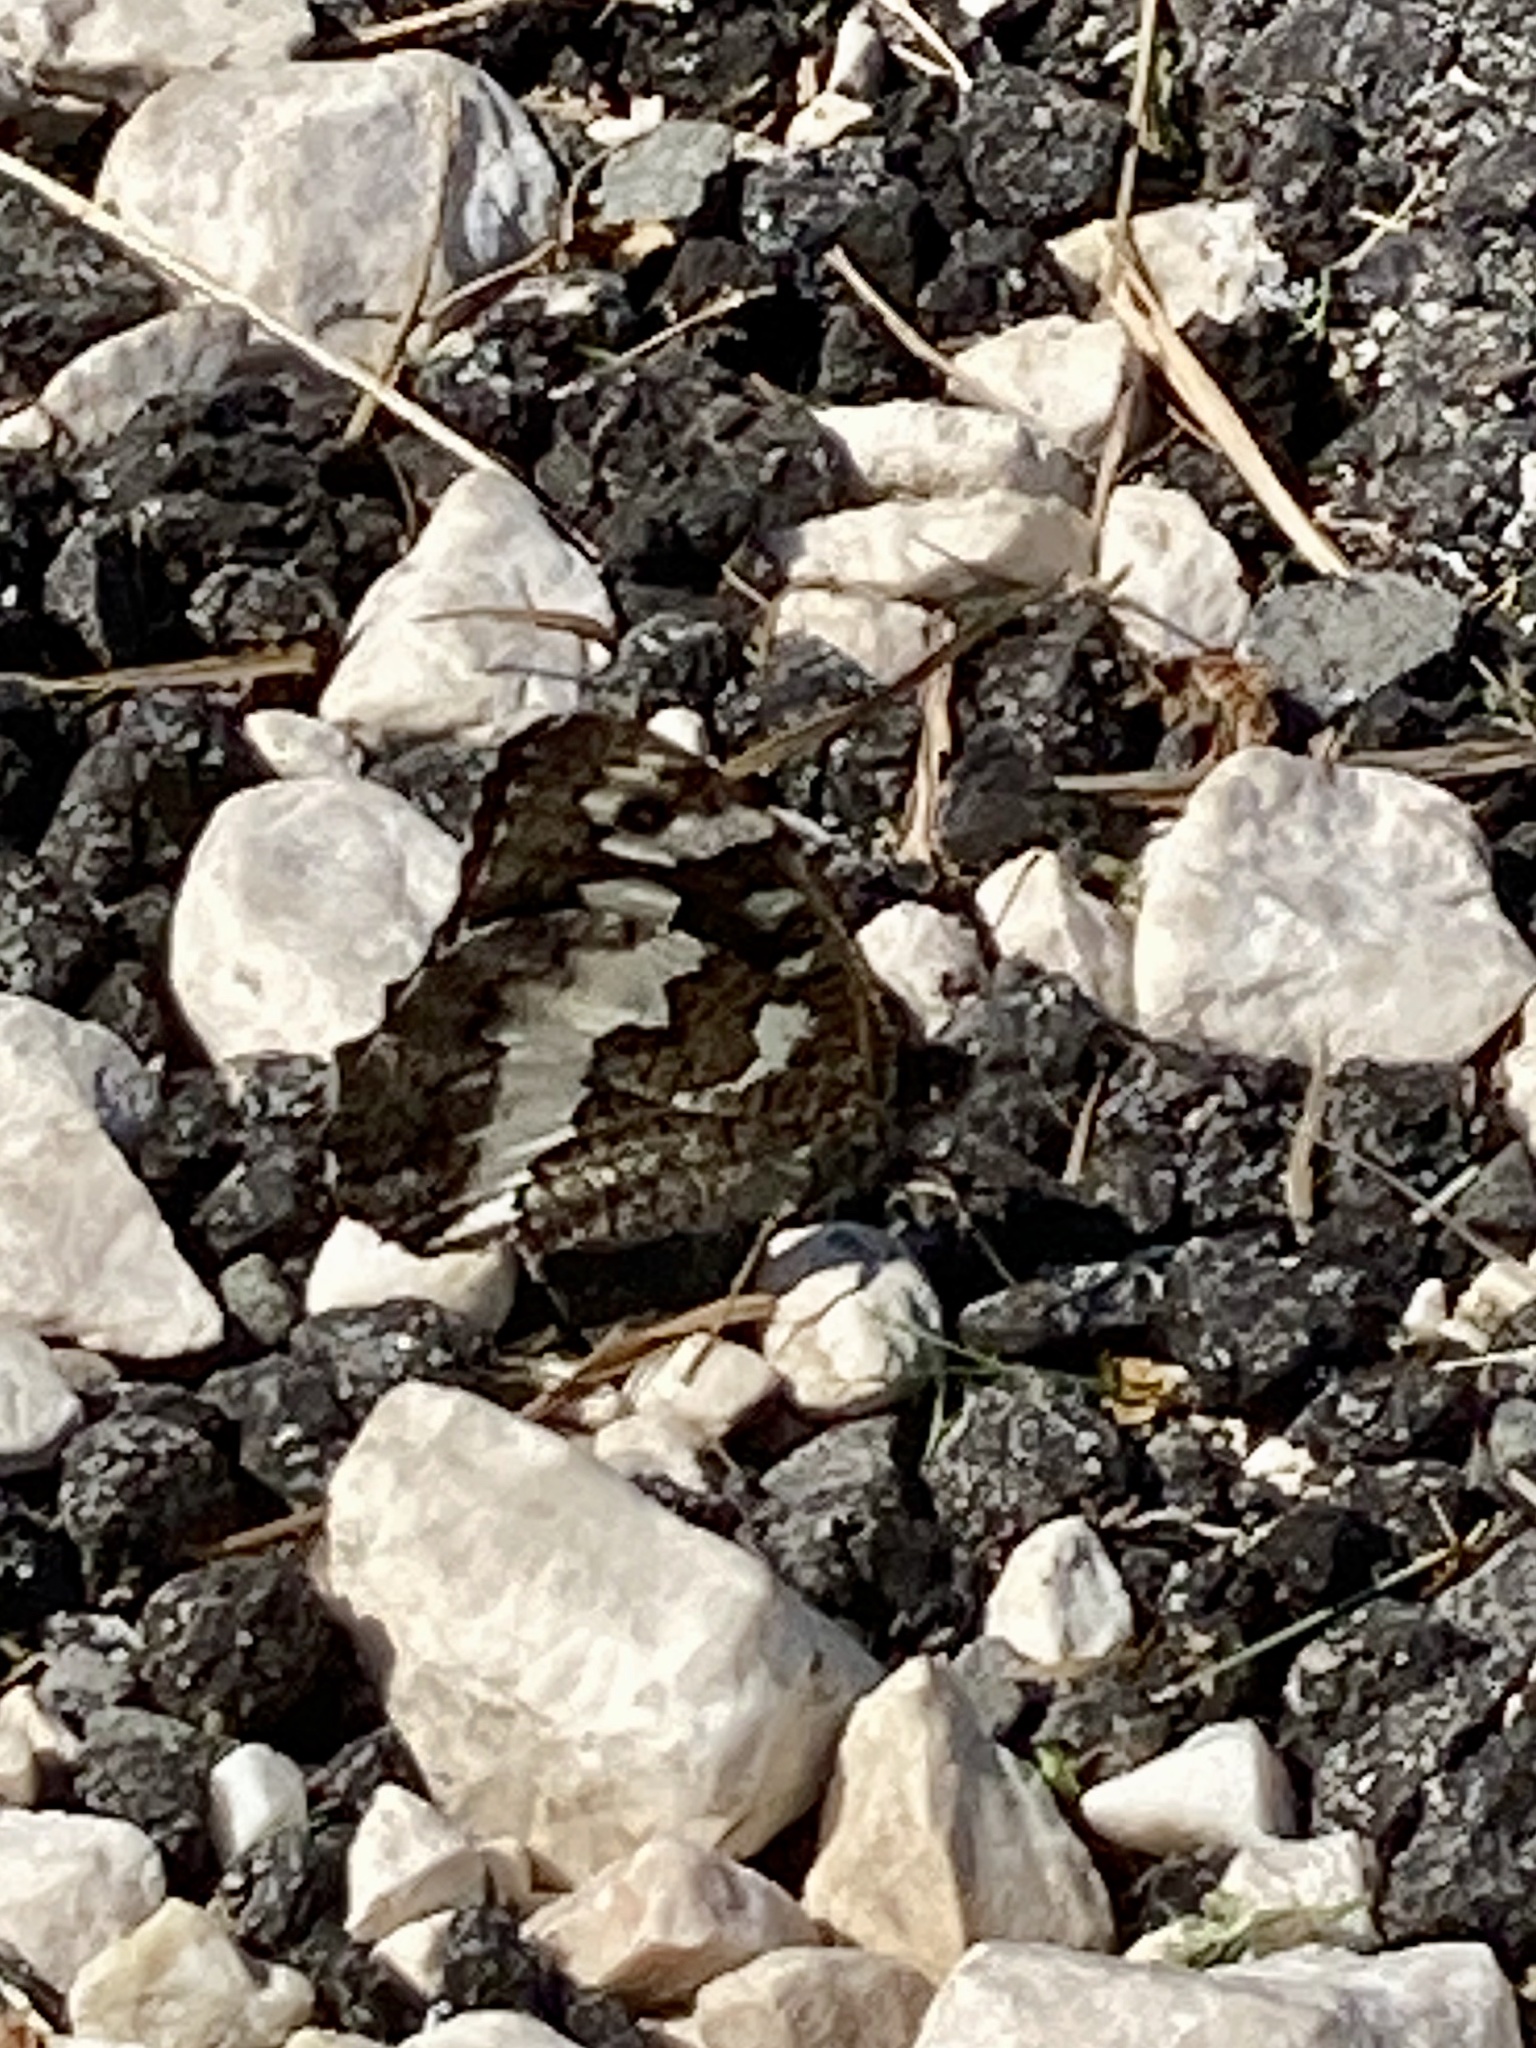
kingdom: Animalia
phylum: Arthropoda
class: Insecta
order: Lepidoptera
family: Lycaenidae
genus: Loweia
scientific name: Loweia tityrus
